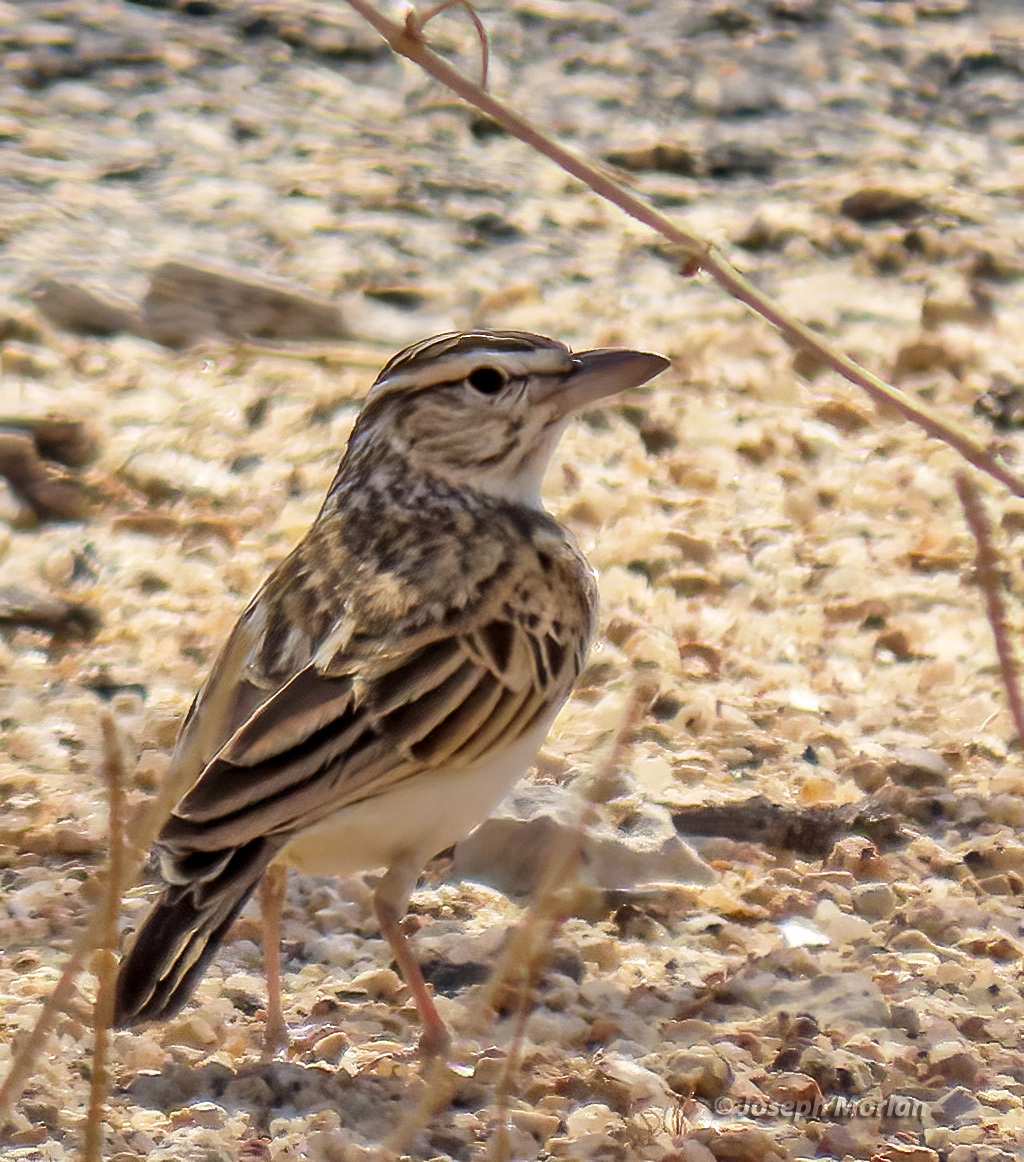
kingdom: Animalia
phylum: Chordata
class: Aves
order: Passeriformes
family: Alaudidae
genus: Calendulauda
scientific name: Calendulauda sabota
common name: Sabota lark
